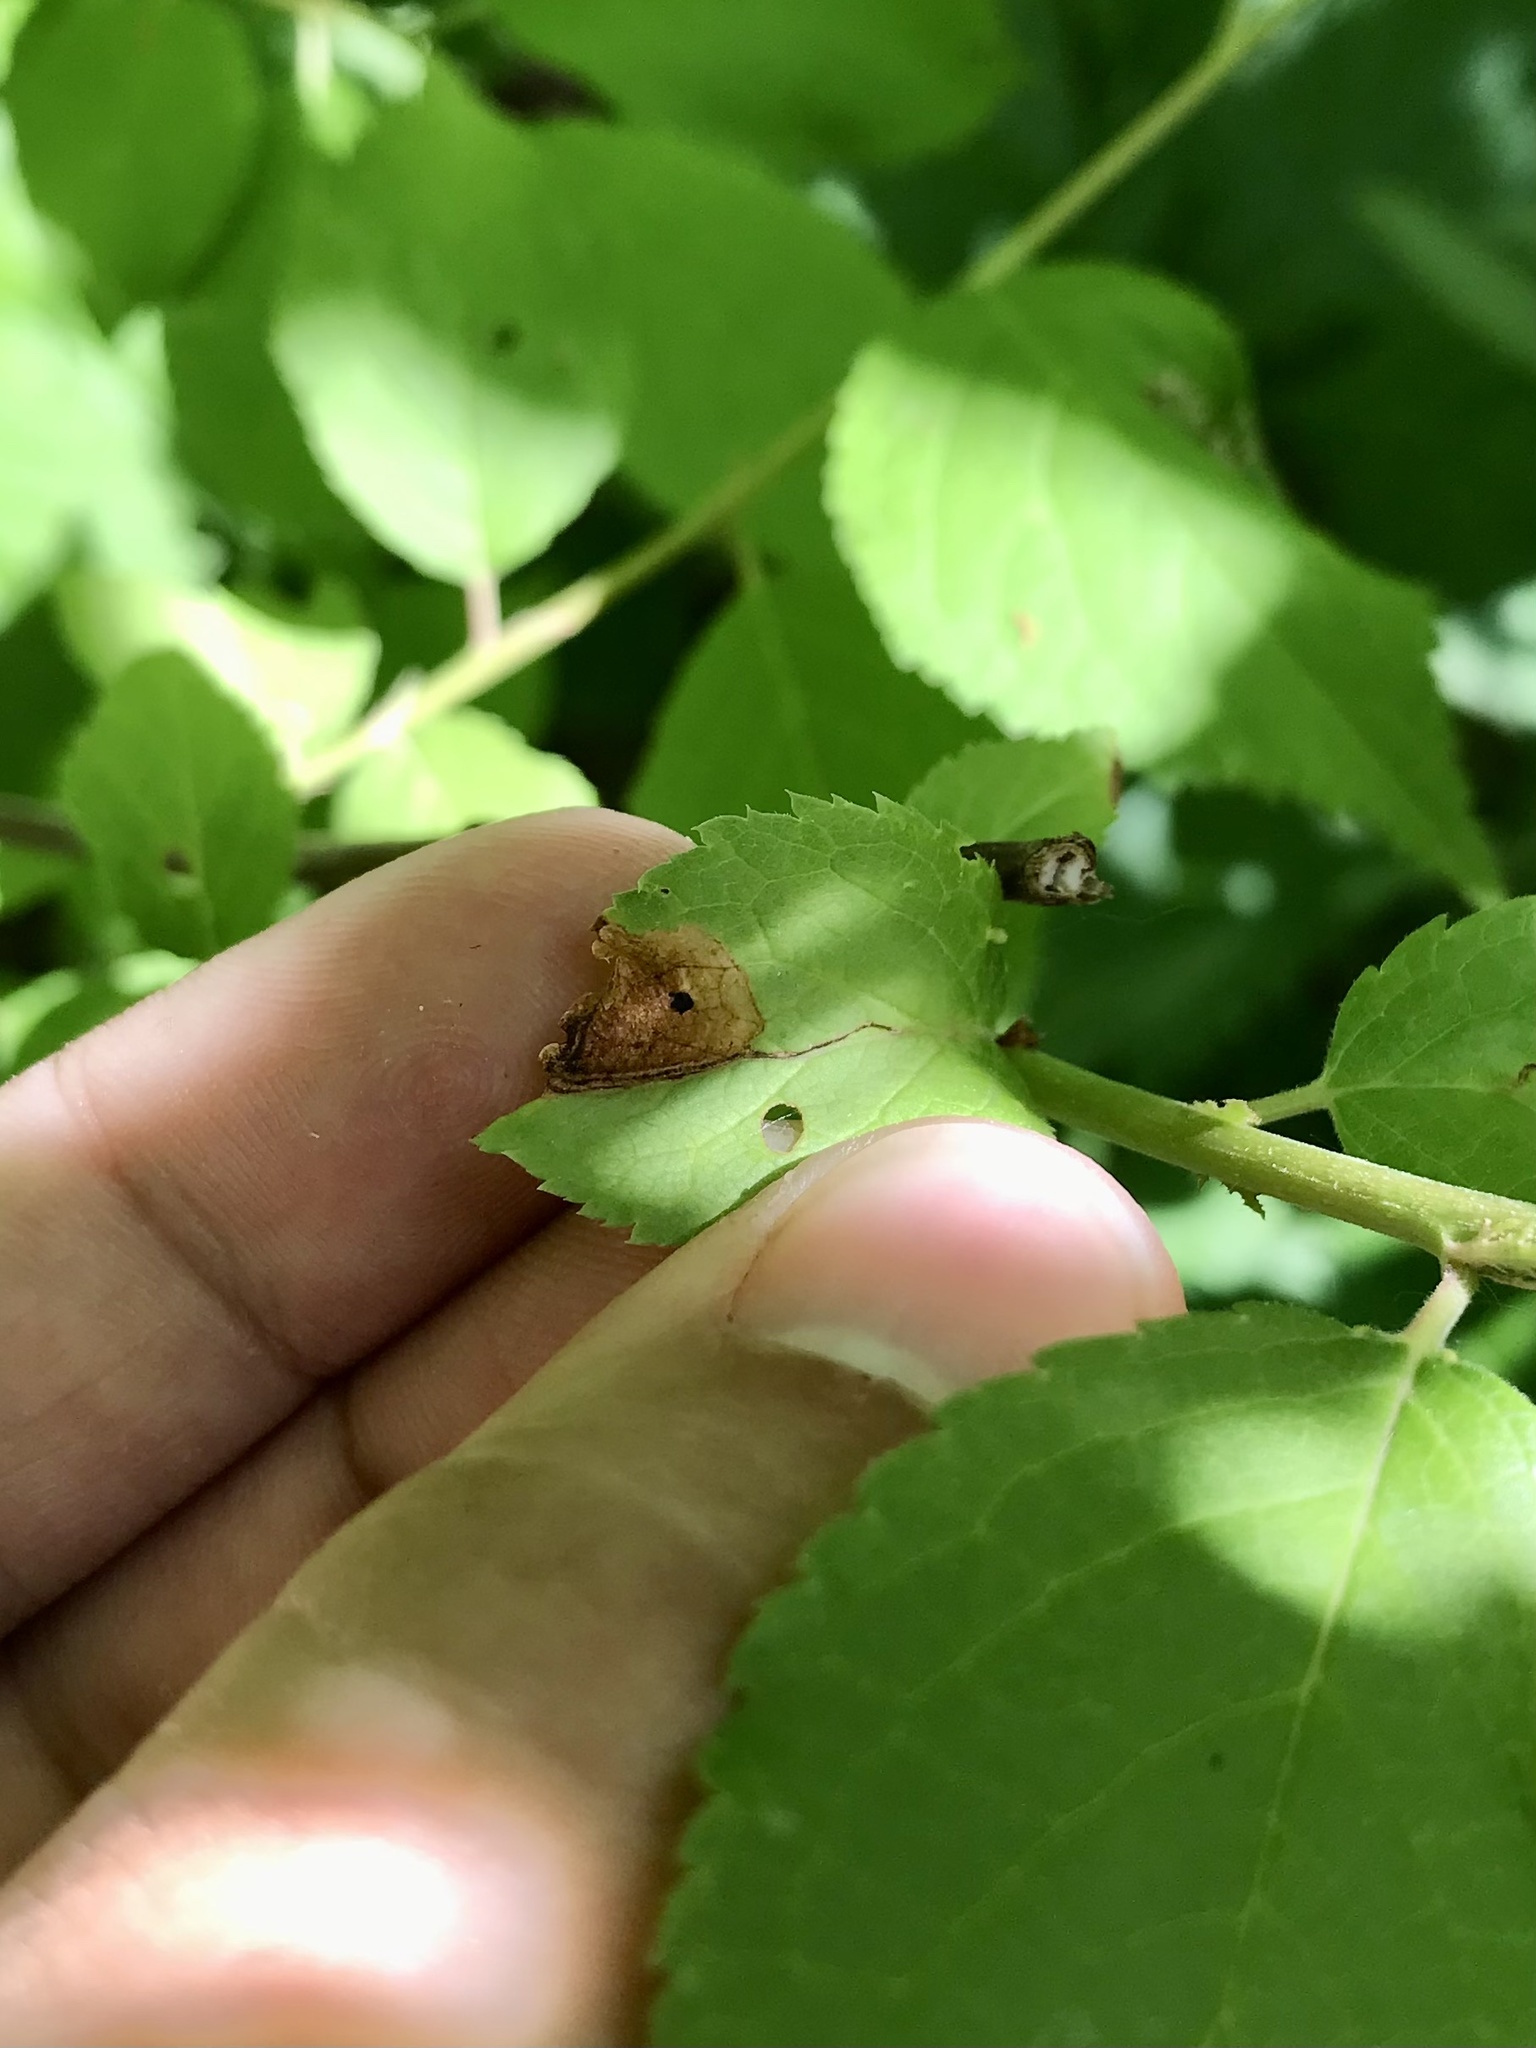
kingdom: Animalia
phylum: Arthropoda
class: Insecta
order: Coleoptera
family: Curculionidae
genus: Orchestes
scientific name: Orchestes pallicornis
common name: Apple-flea weevil
